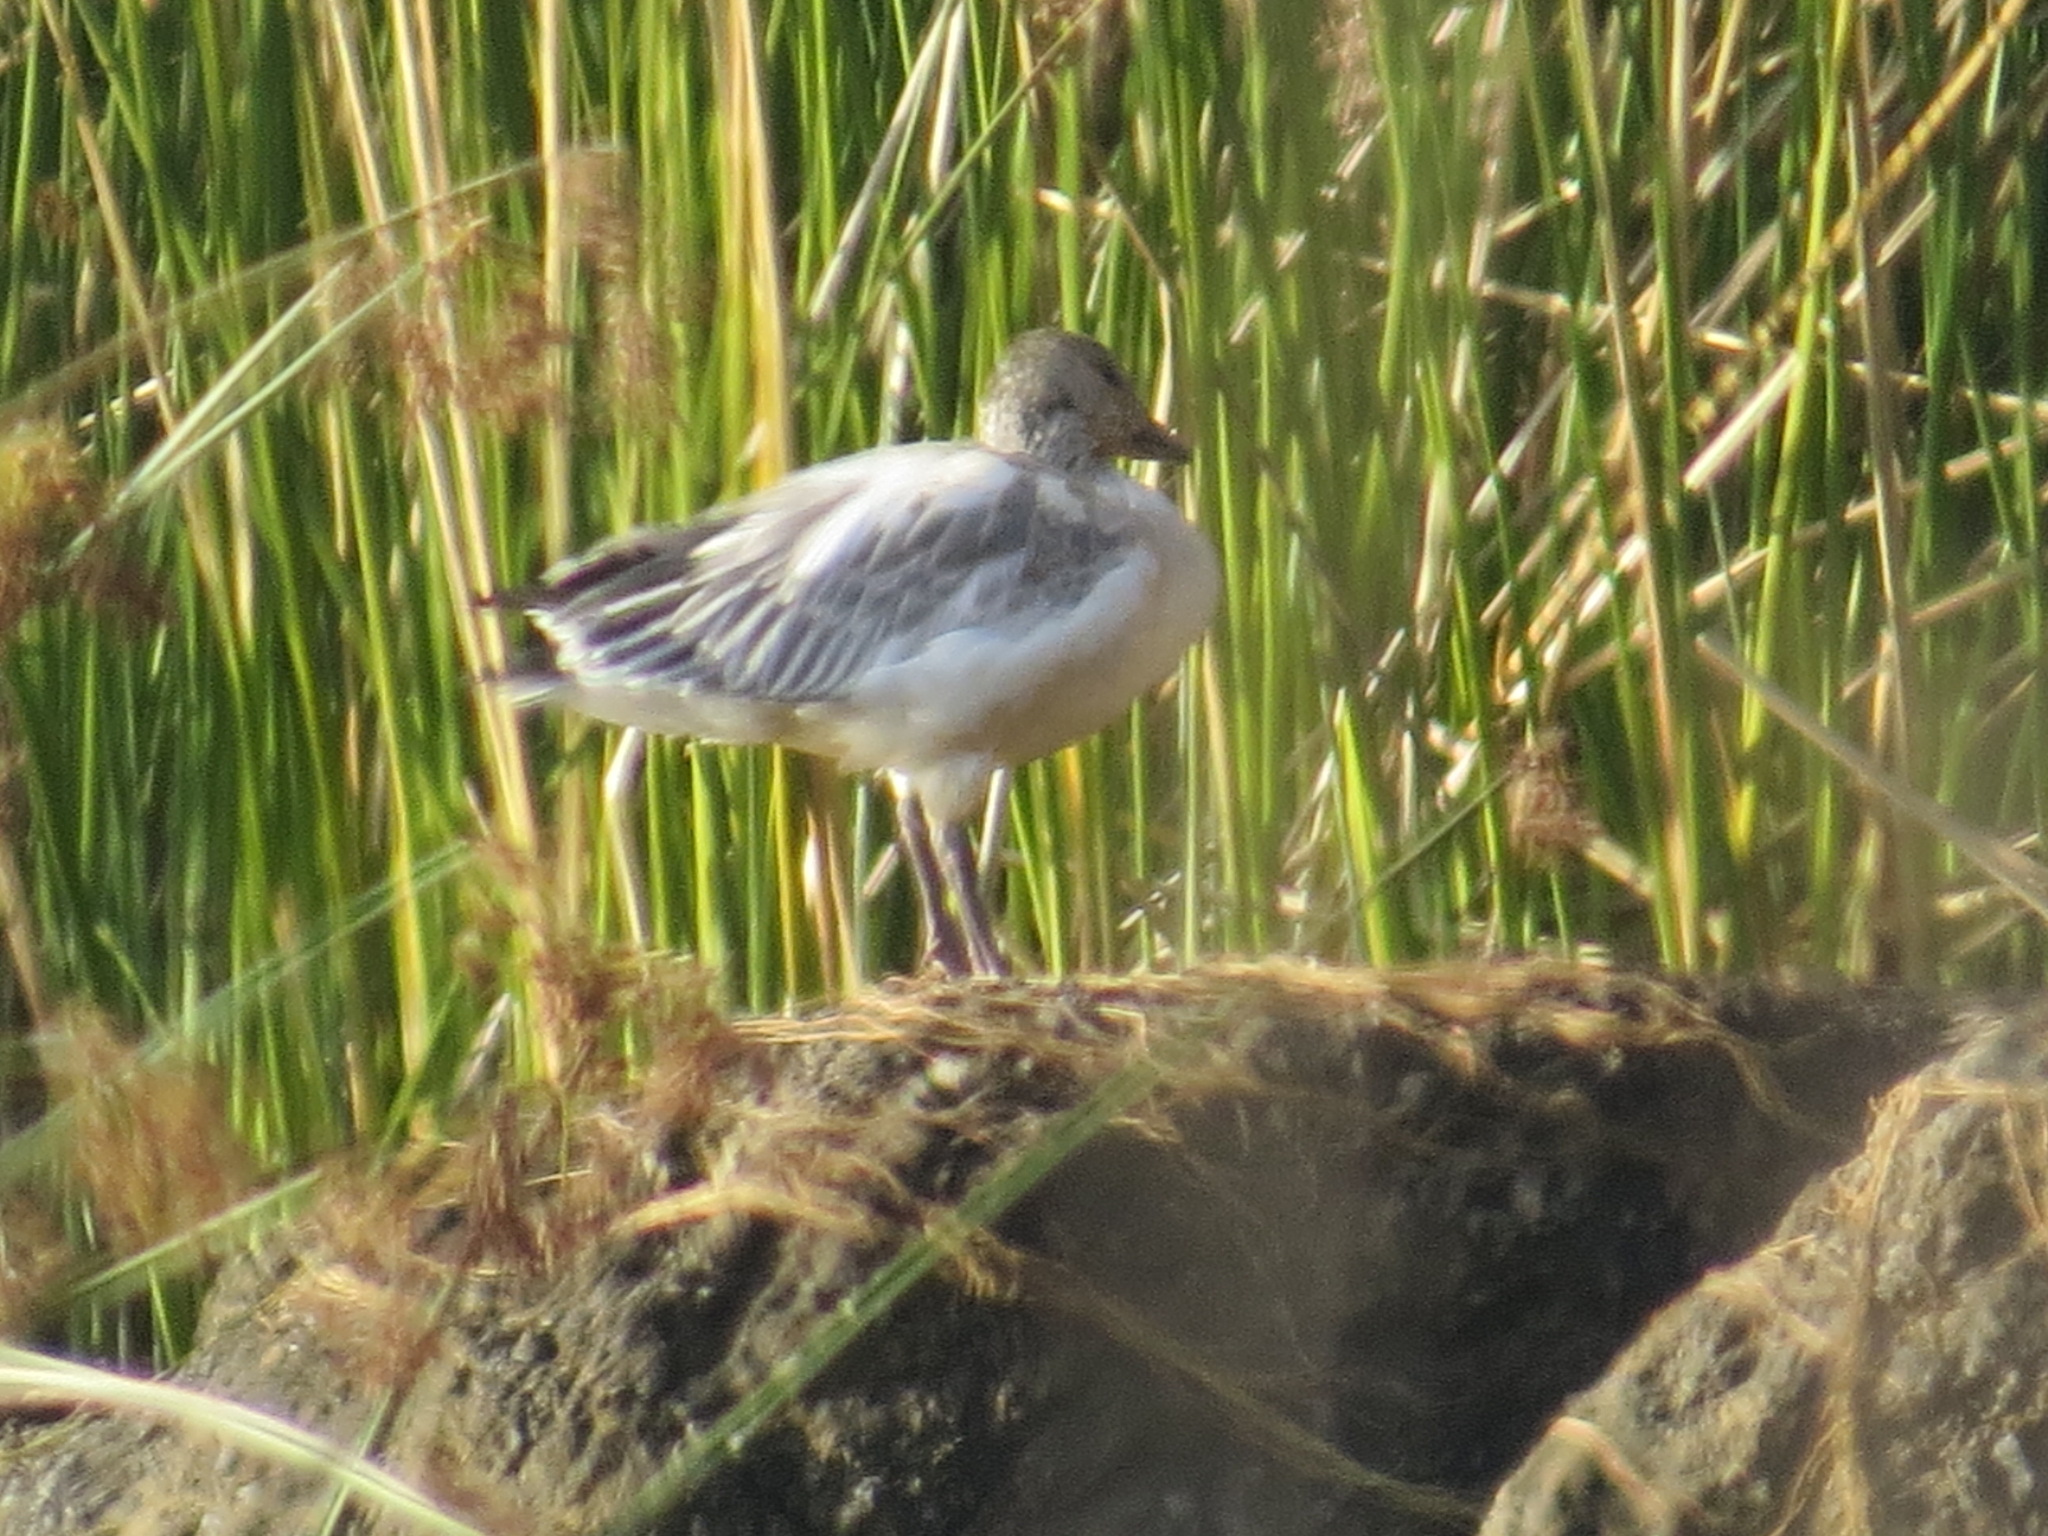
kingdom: Animalia
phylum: Chordata
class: Aves
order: Anseriformes
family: Anatidae
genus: Anser
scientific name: Anser caerulescens
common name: Snow goose
